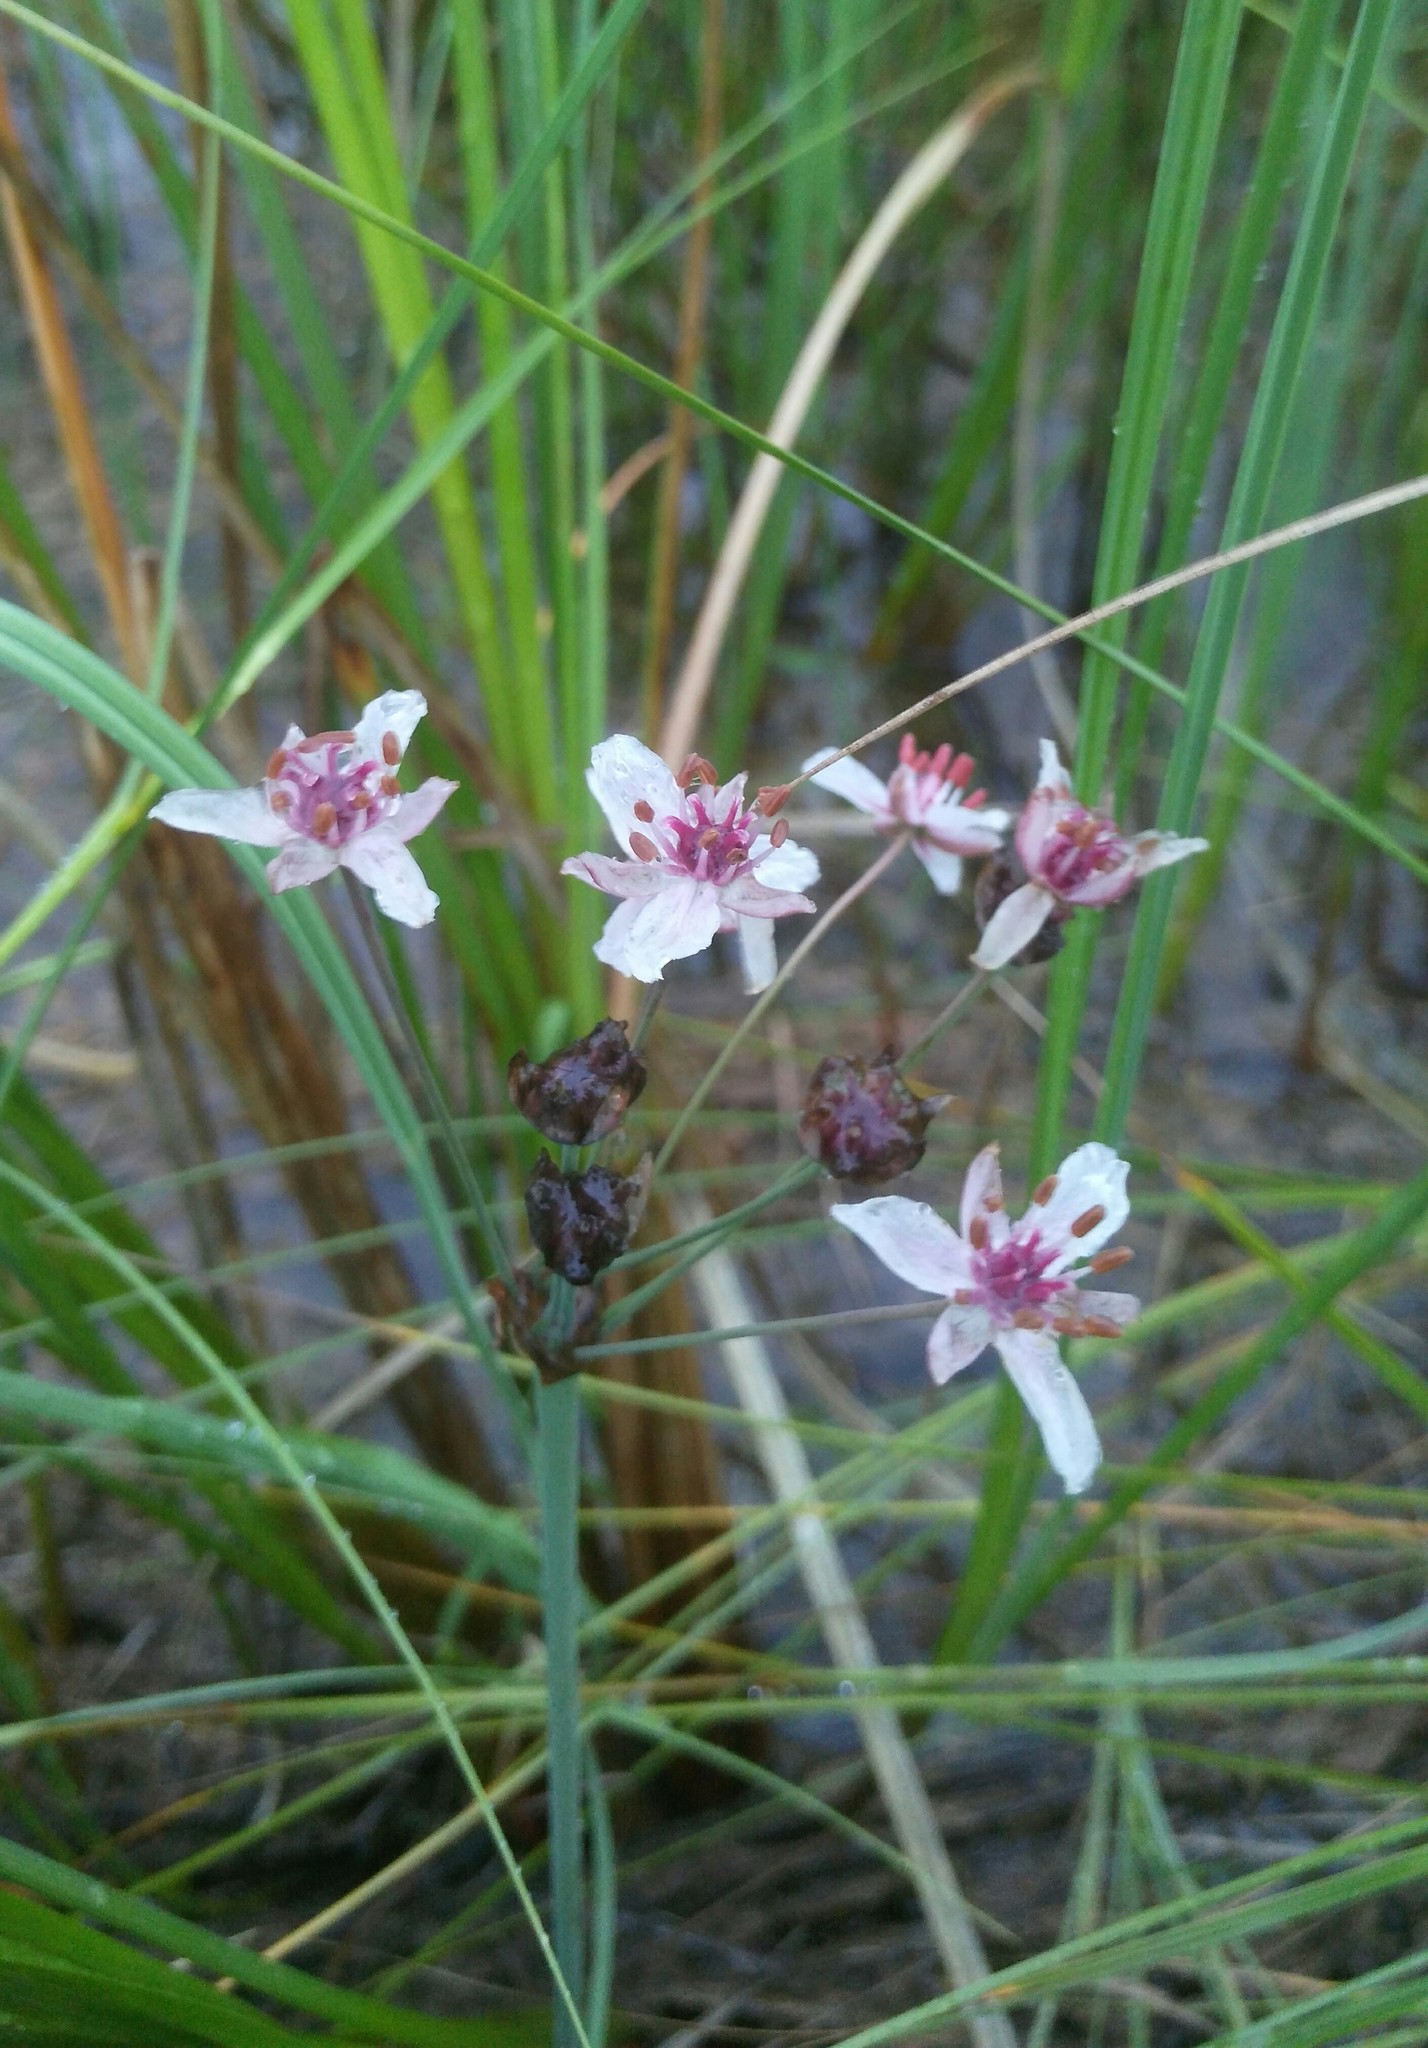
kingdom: Plantae
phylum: Tracheophyta
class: Liliopsida
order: Alismatales
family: Butomaceae
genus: Butomus
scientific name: Butomus umbellatus
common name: Flowering-rush
